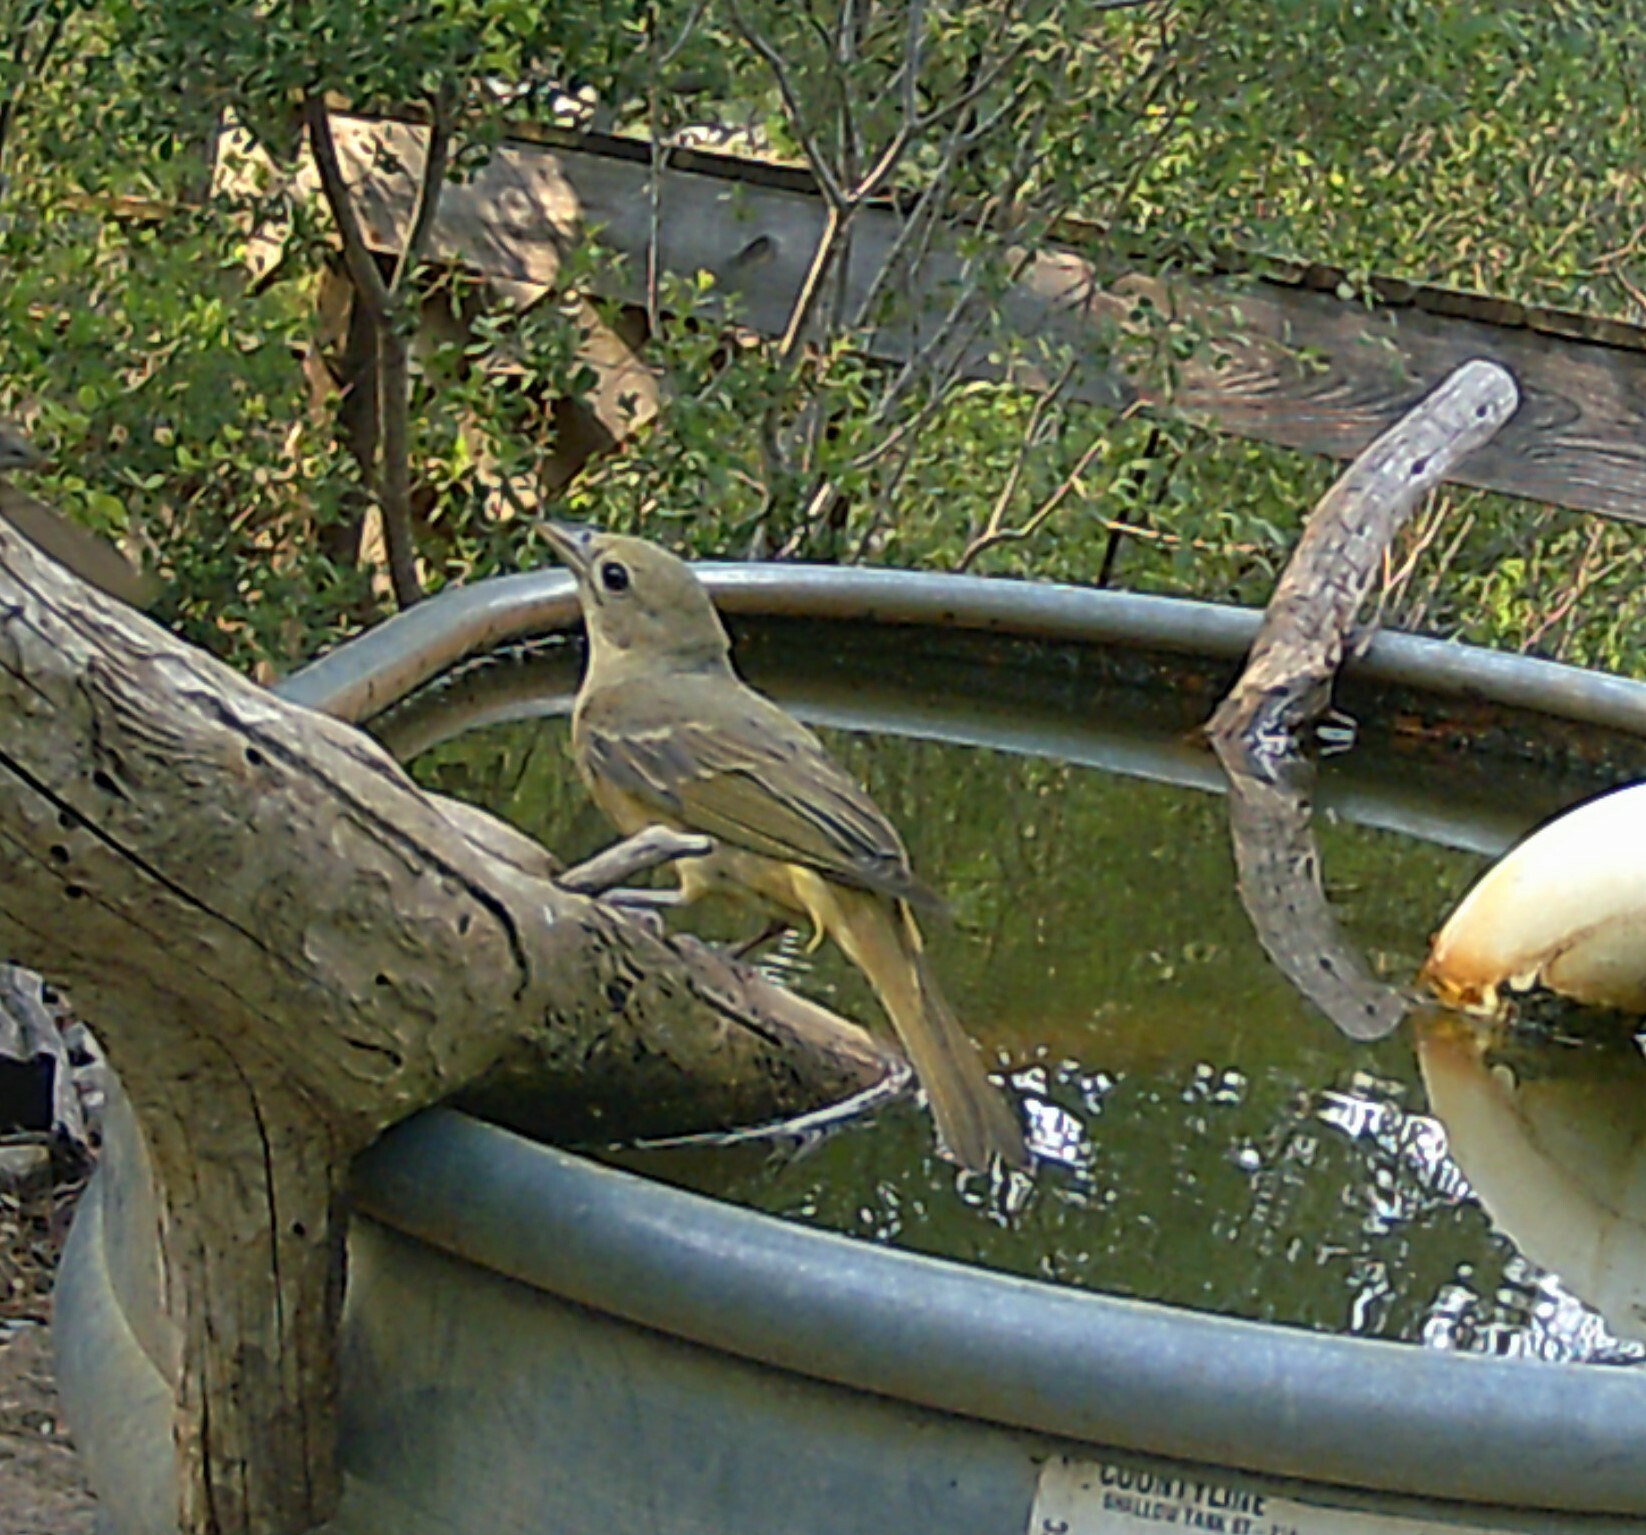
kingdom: Animalia
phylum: Chordata
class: Aves
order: Passeriformes
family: Cardinalidae
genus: Piranga
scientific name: Piranga rubra
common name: Summer tanager
